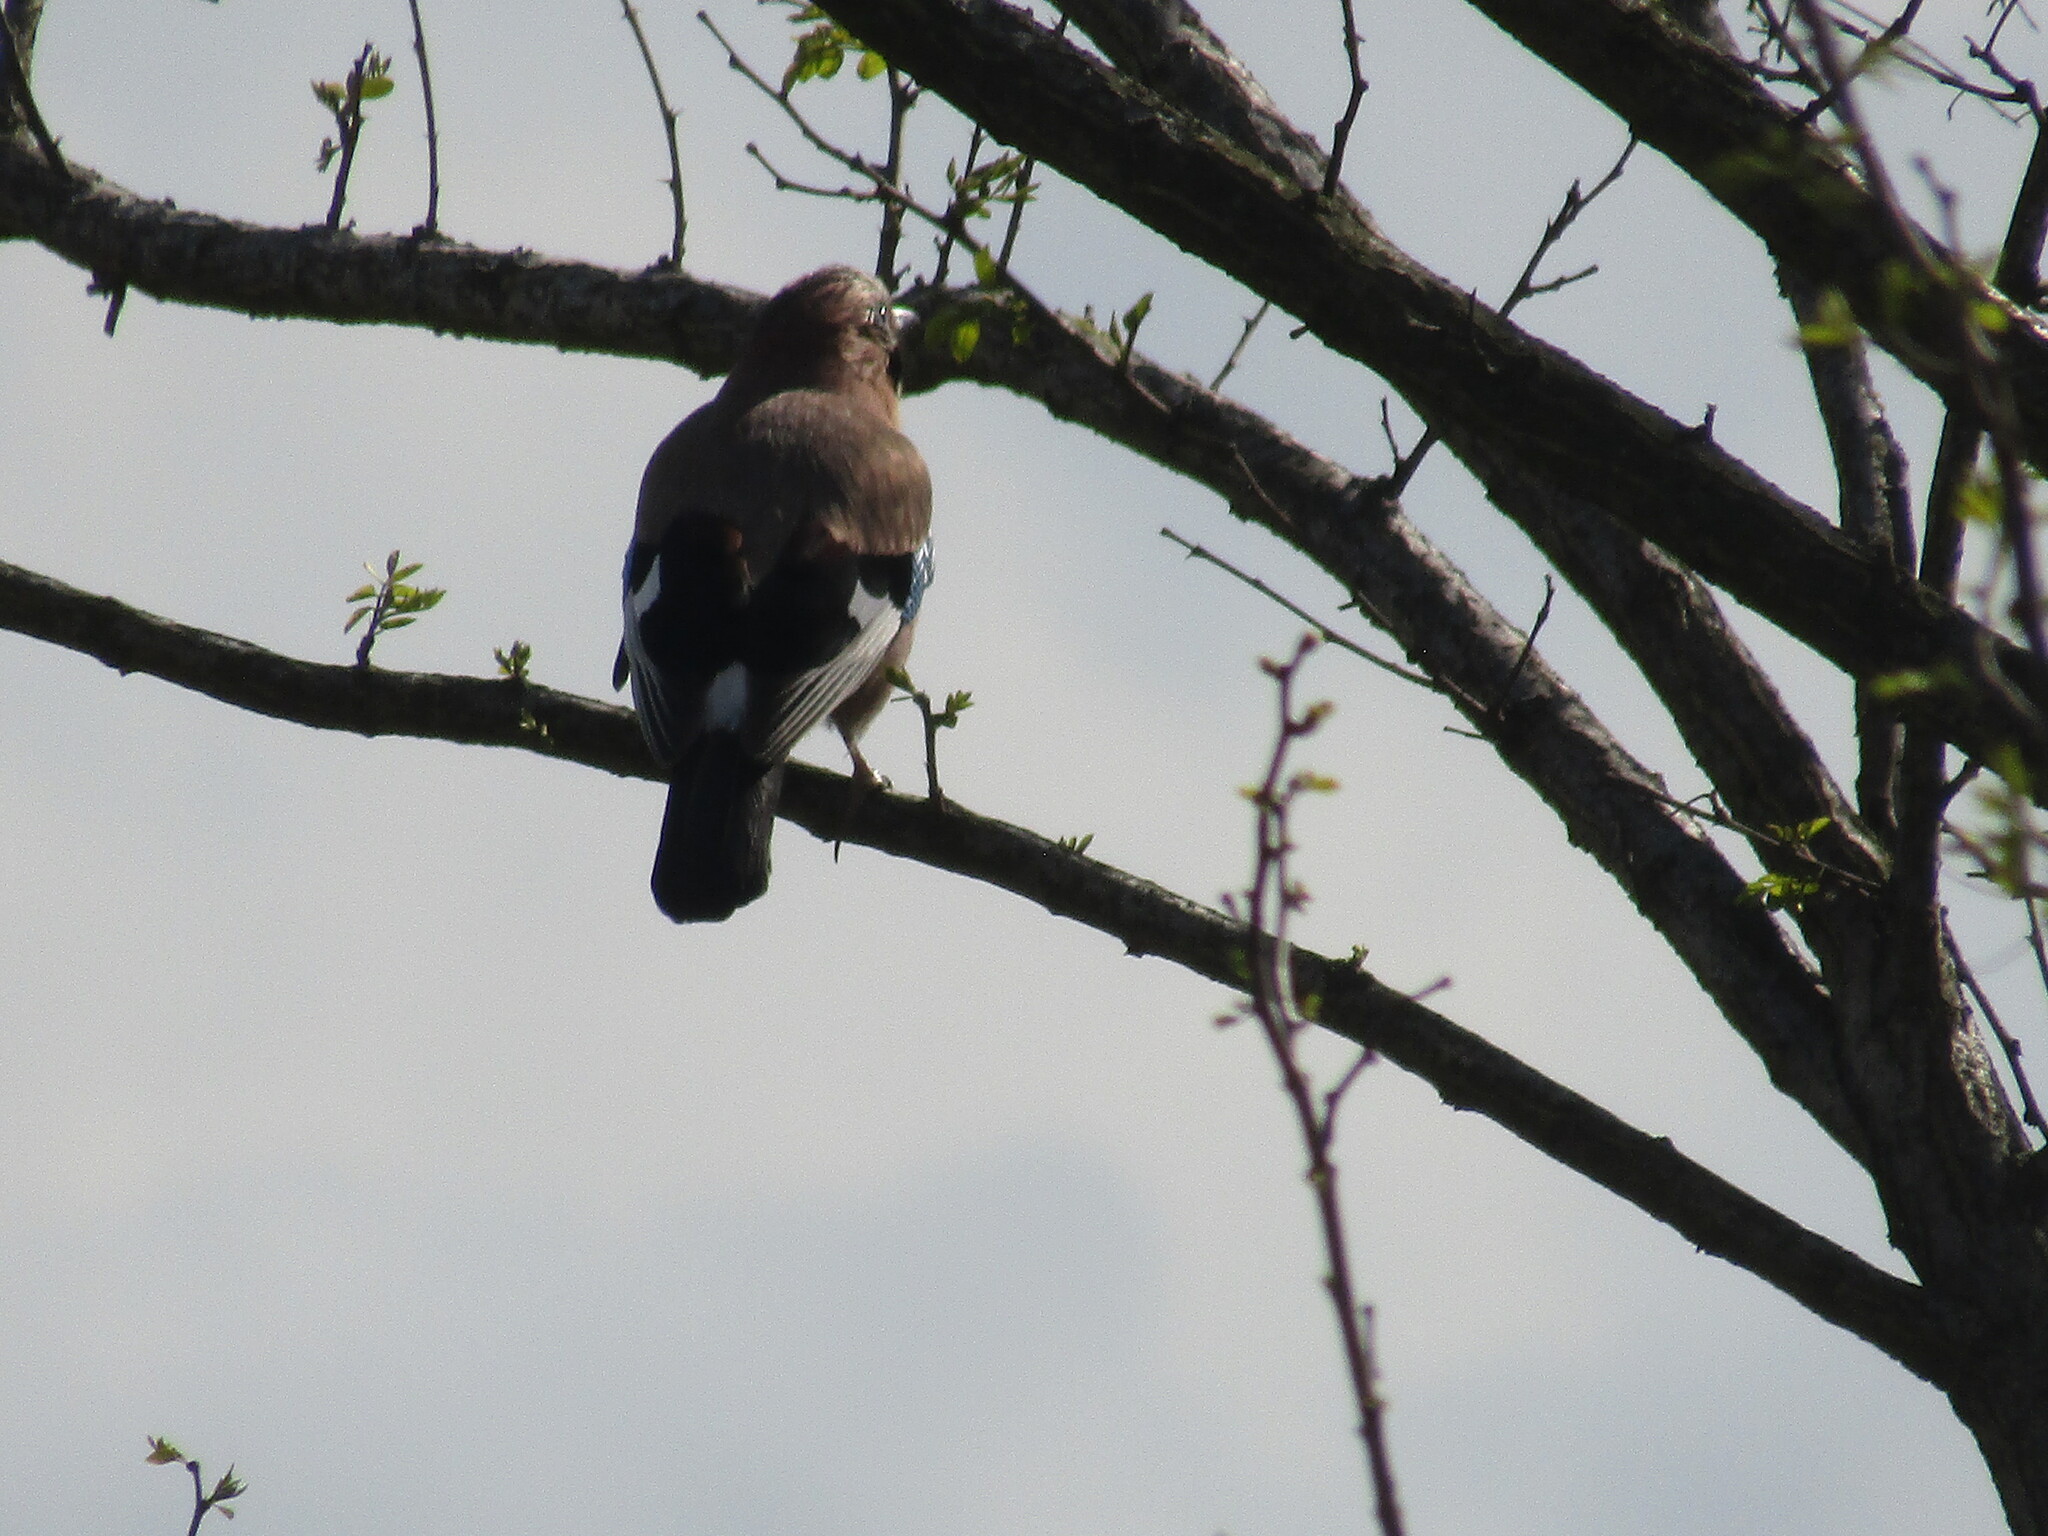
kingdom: Animalia
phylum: Chordata
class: Aves
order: Passeriformes
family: Corvidae
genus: Garrulus
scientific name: Garrulus glandarius
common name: Eurasian jay
